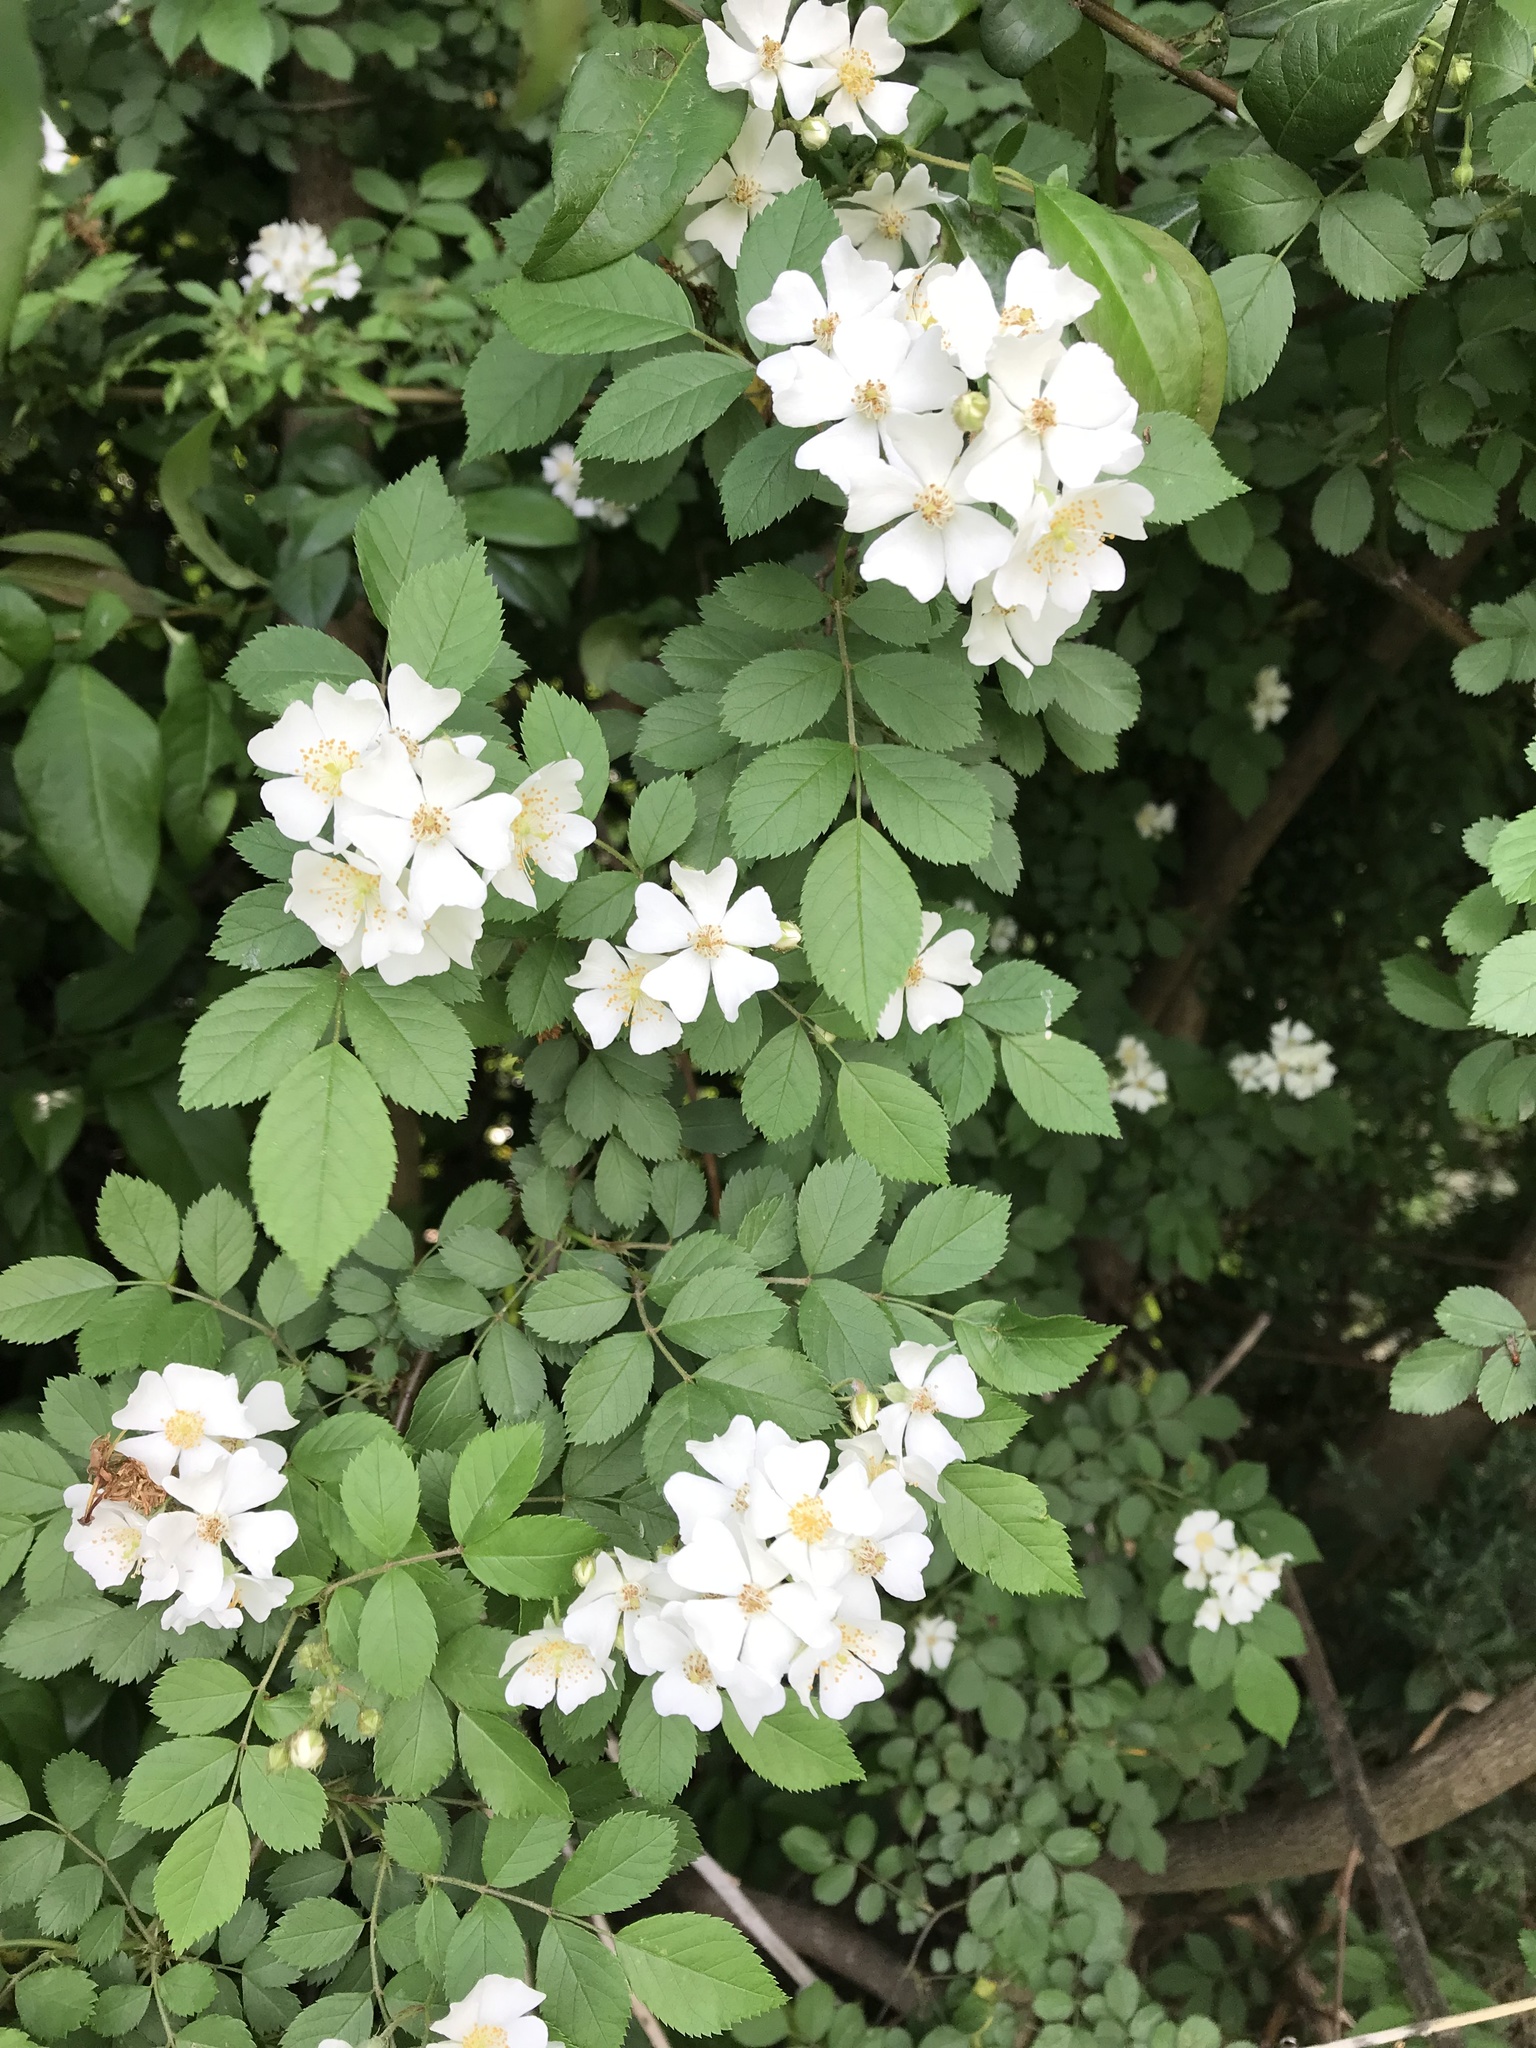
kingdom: Plantae
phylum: Tracheophyta
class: Magnoliopsida
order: Rosales
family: Rosaceae
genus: Rosa
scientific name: Rosa multiflora
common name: Multiflora rose
